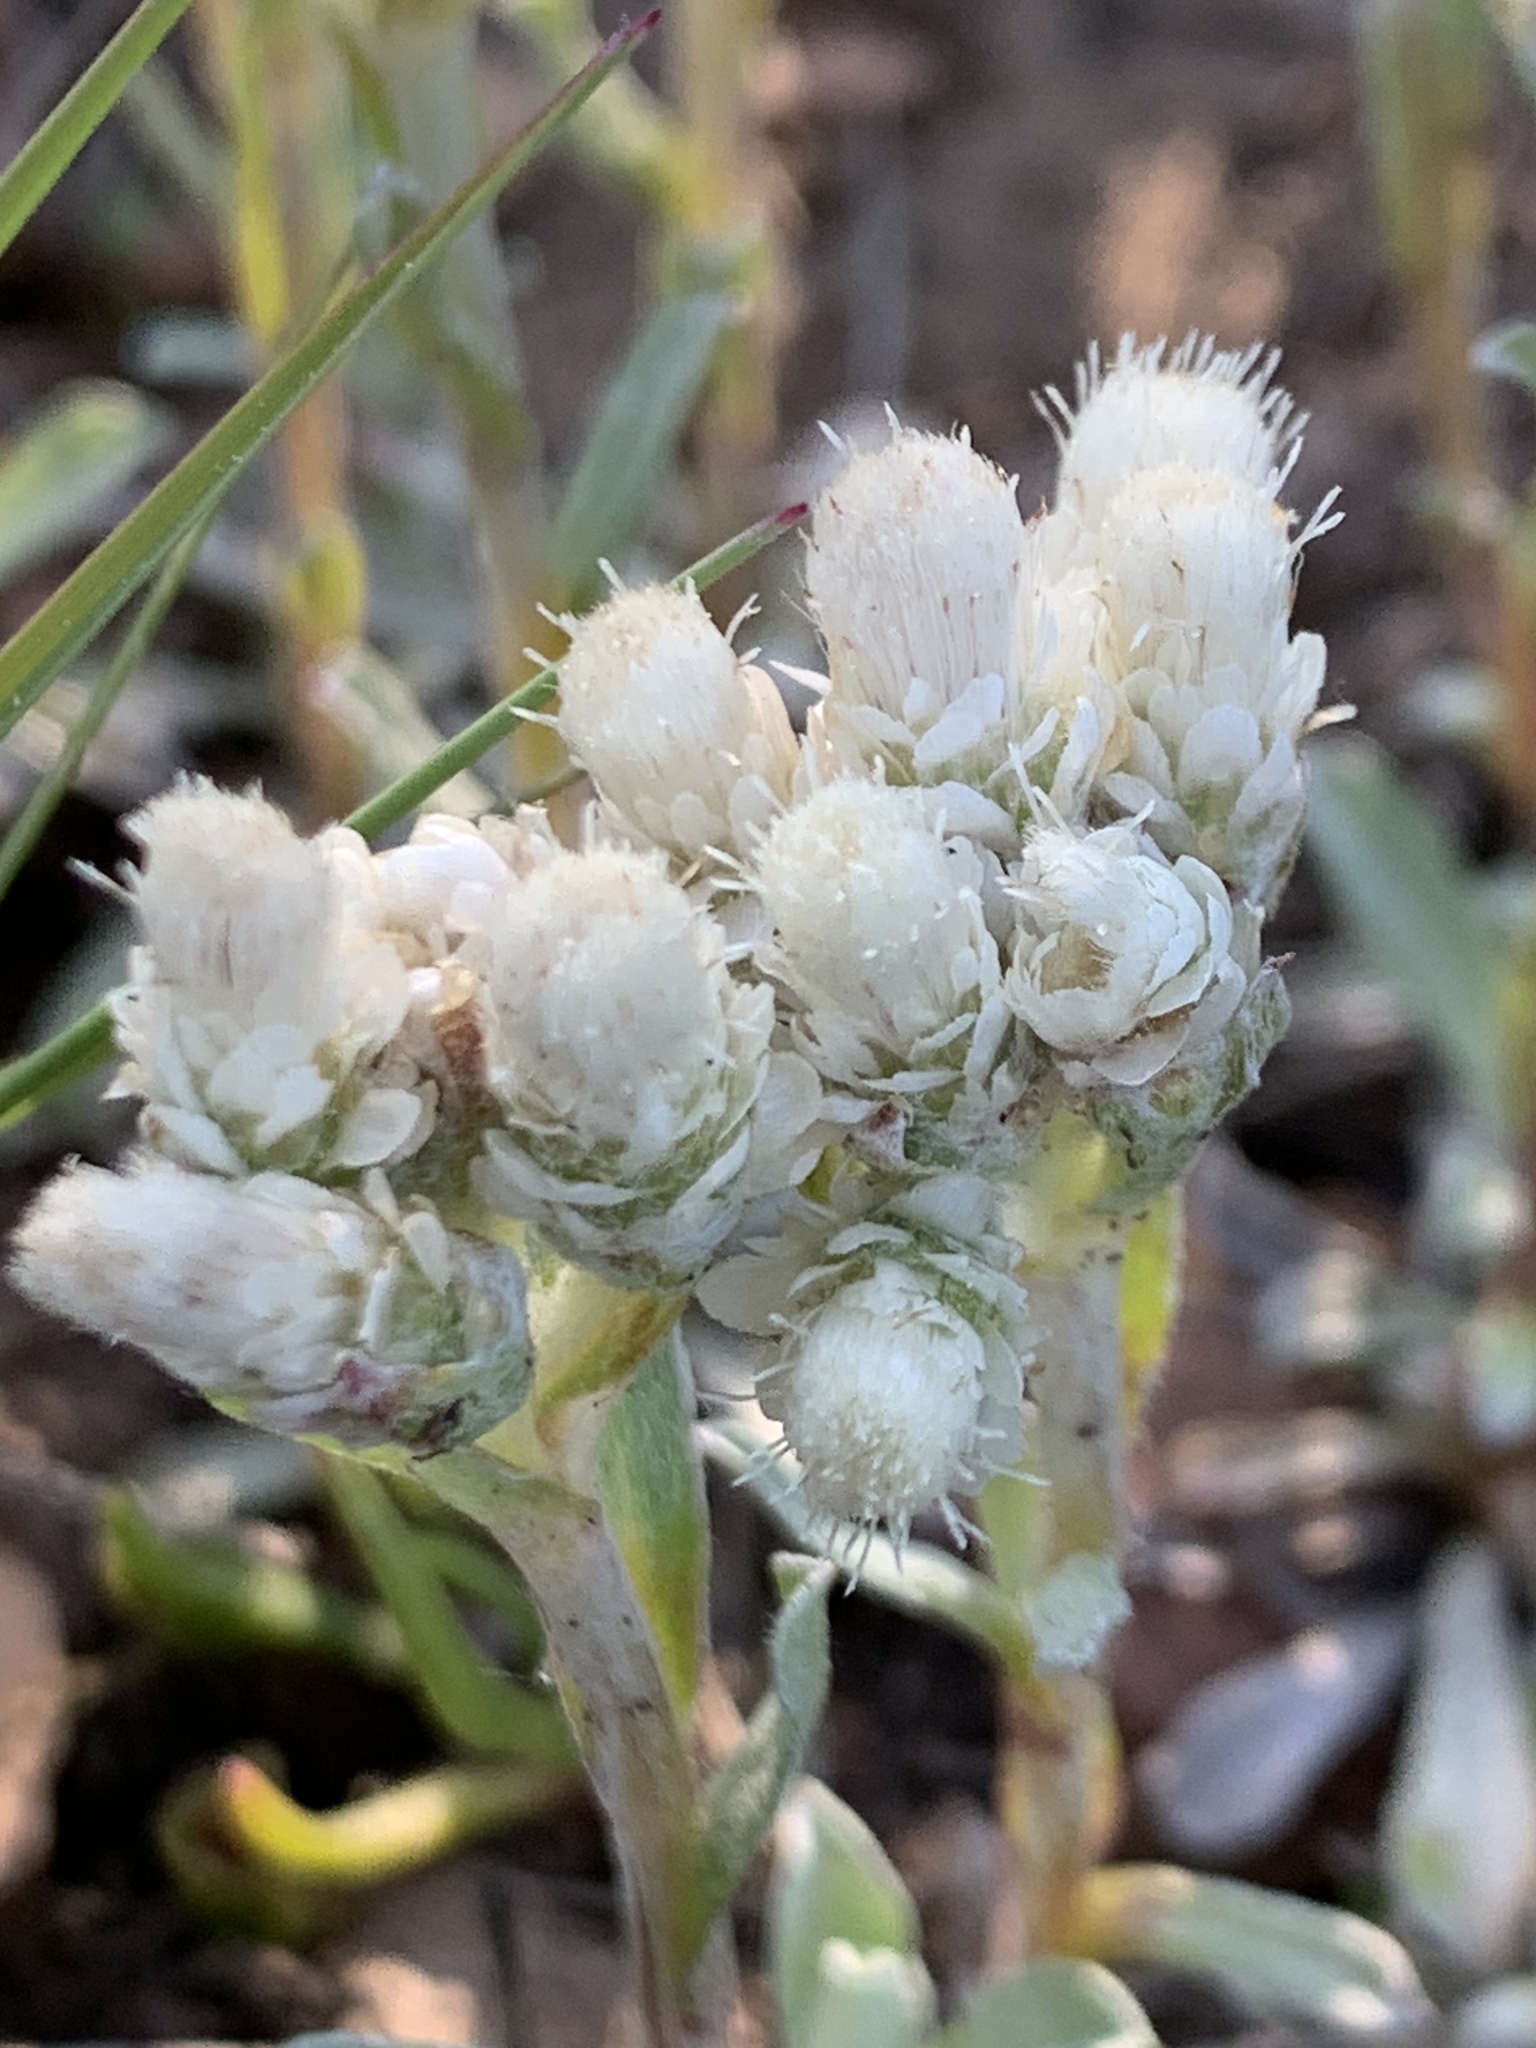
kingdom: Plantae
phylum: Tracheophyta
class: Magnoliopsida
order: Asterales
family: Asteraceae
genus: Antennaria
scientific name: Antennaria parvifolia
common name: Nuttall's pussytoes
